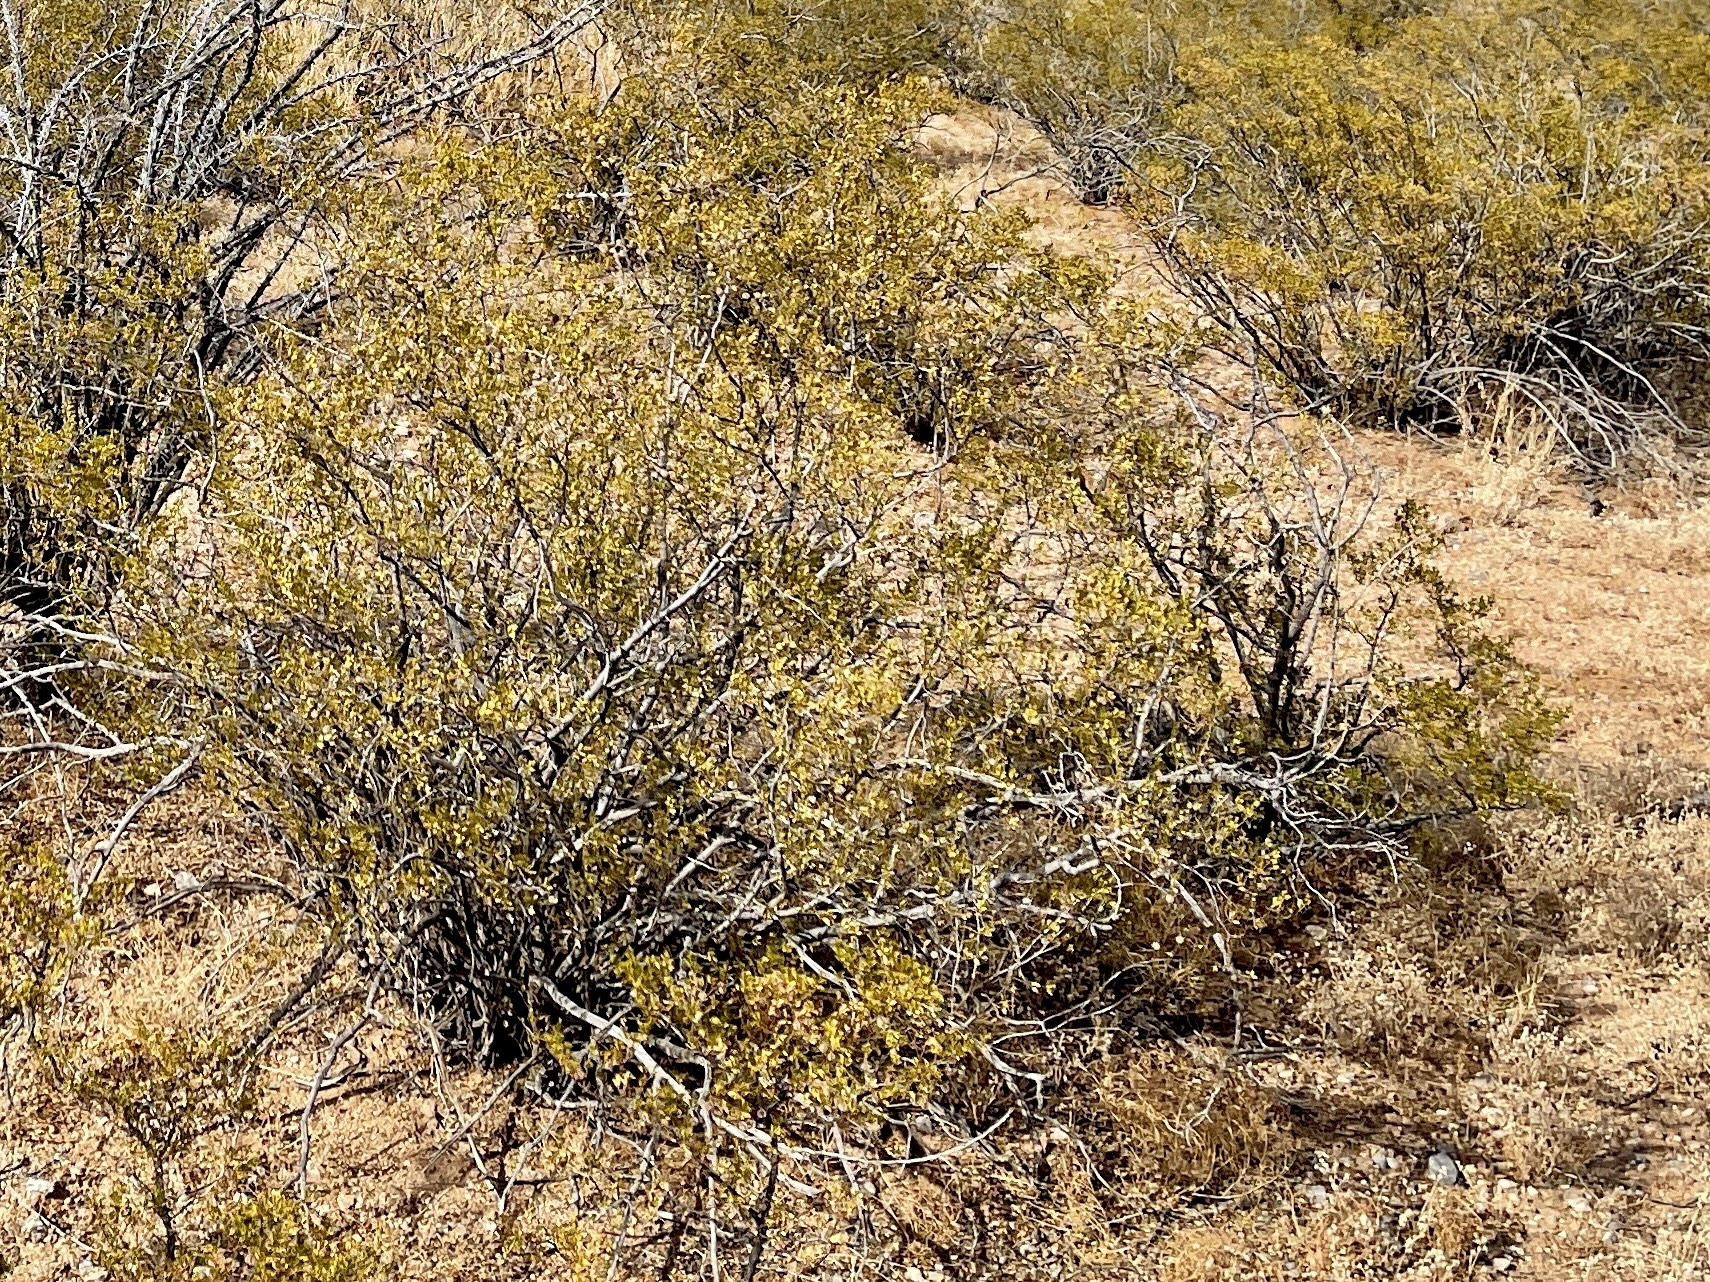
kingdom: Plantae
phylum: Tracheophyta
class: Magnoliopsida
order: Zygophyllales
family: Zygophyllaceae
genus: Larrea
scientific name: Larrea tridentata
